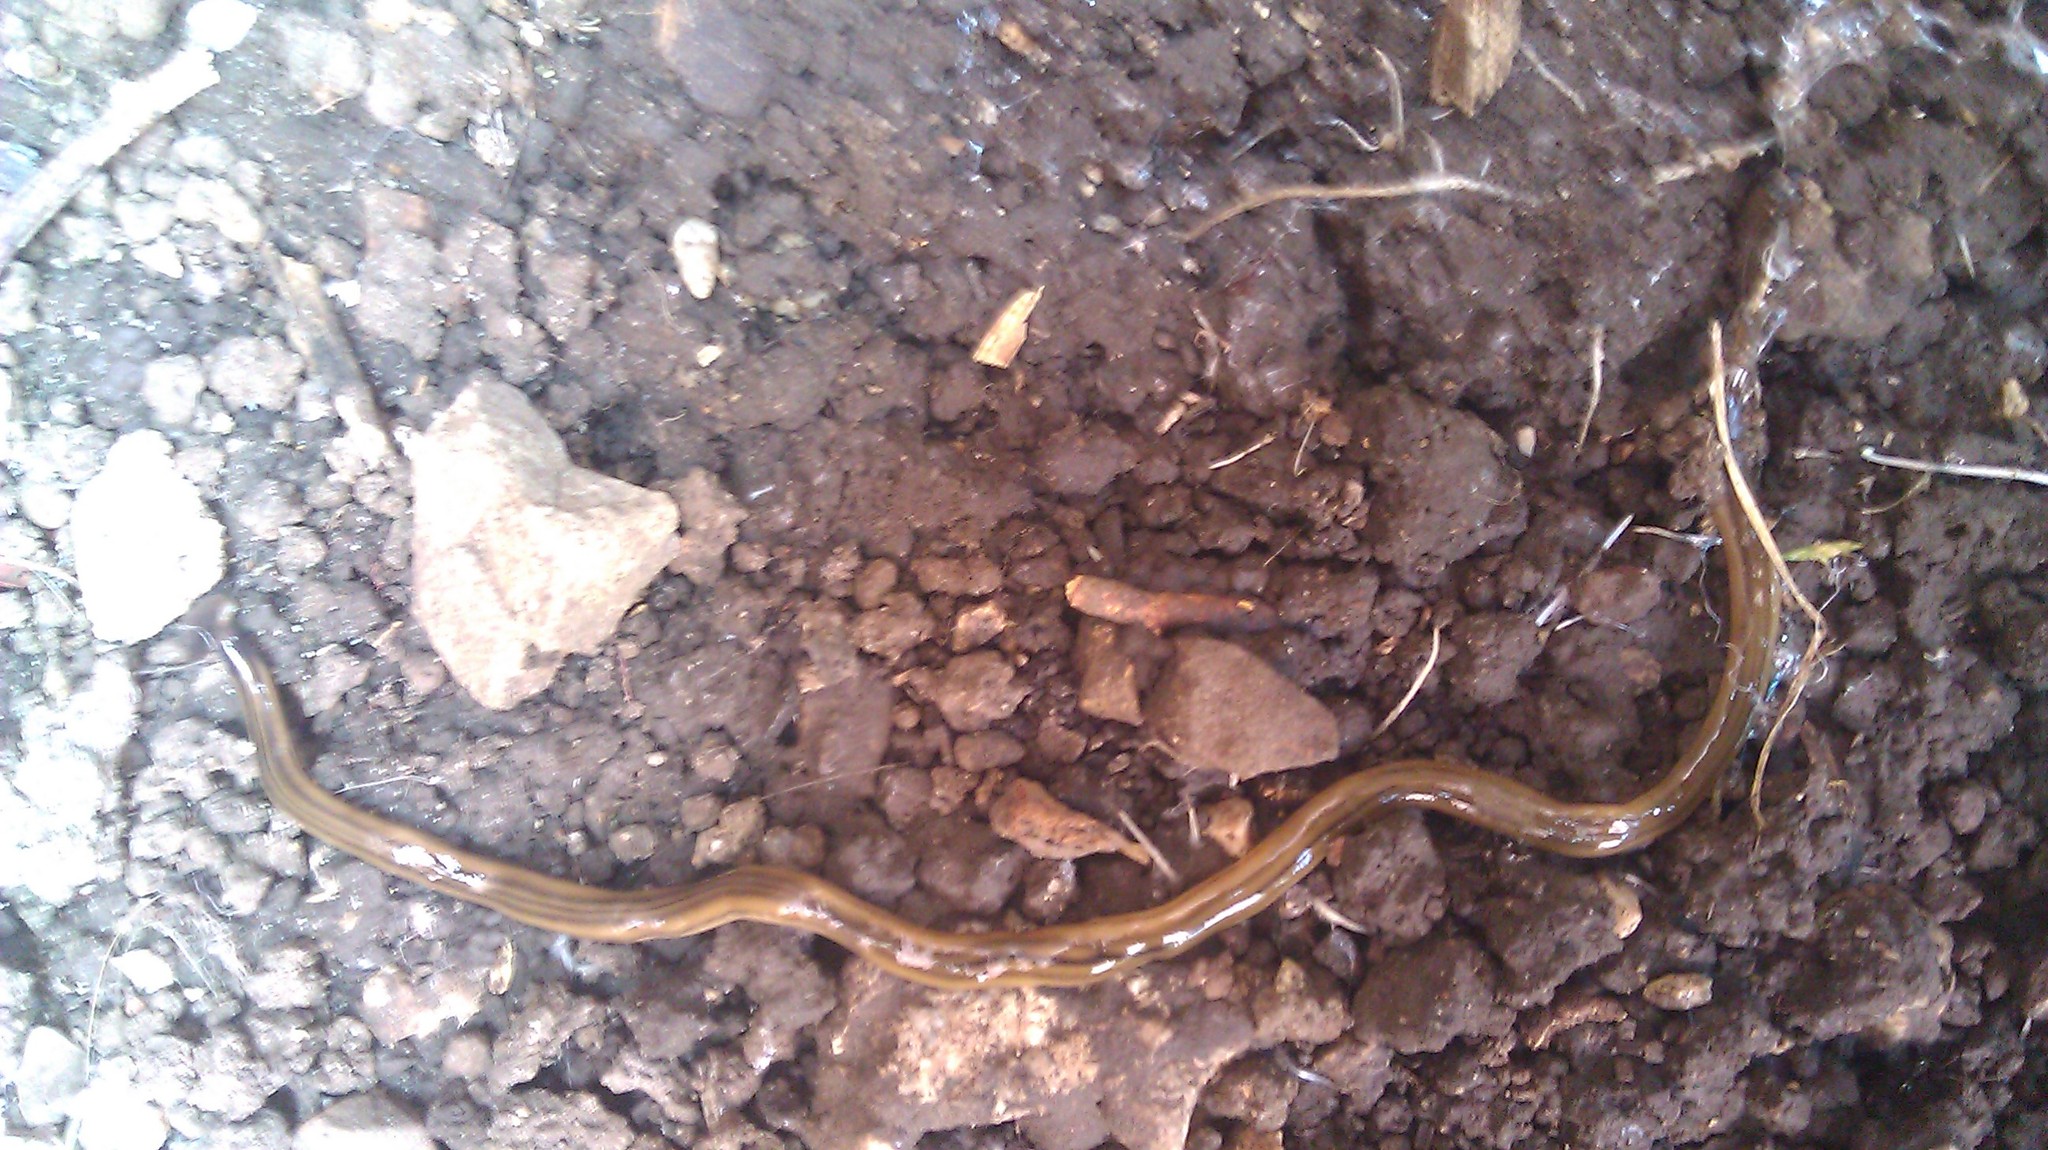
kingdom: Animalia
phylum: Platyhelminthes
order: Tricladida
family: Geoplanidae
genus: Bipalium
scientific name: Bipalium kewense
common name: Hammerhead flatworm
